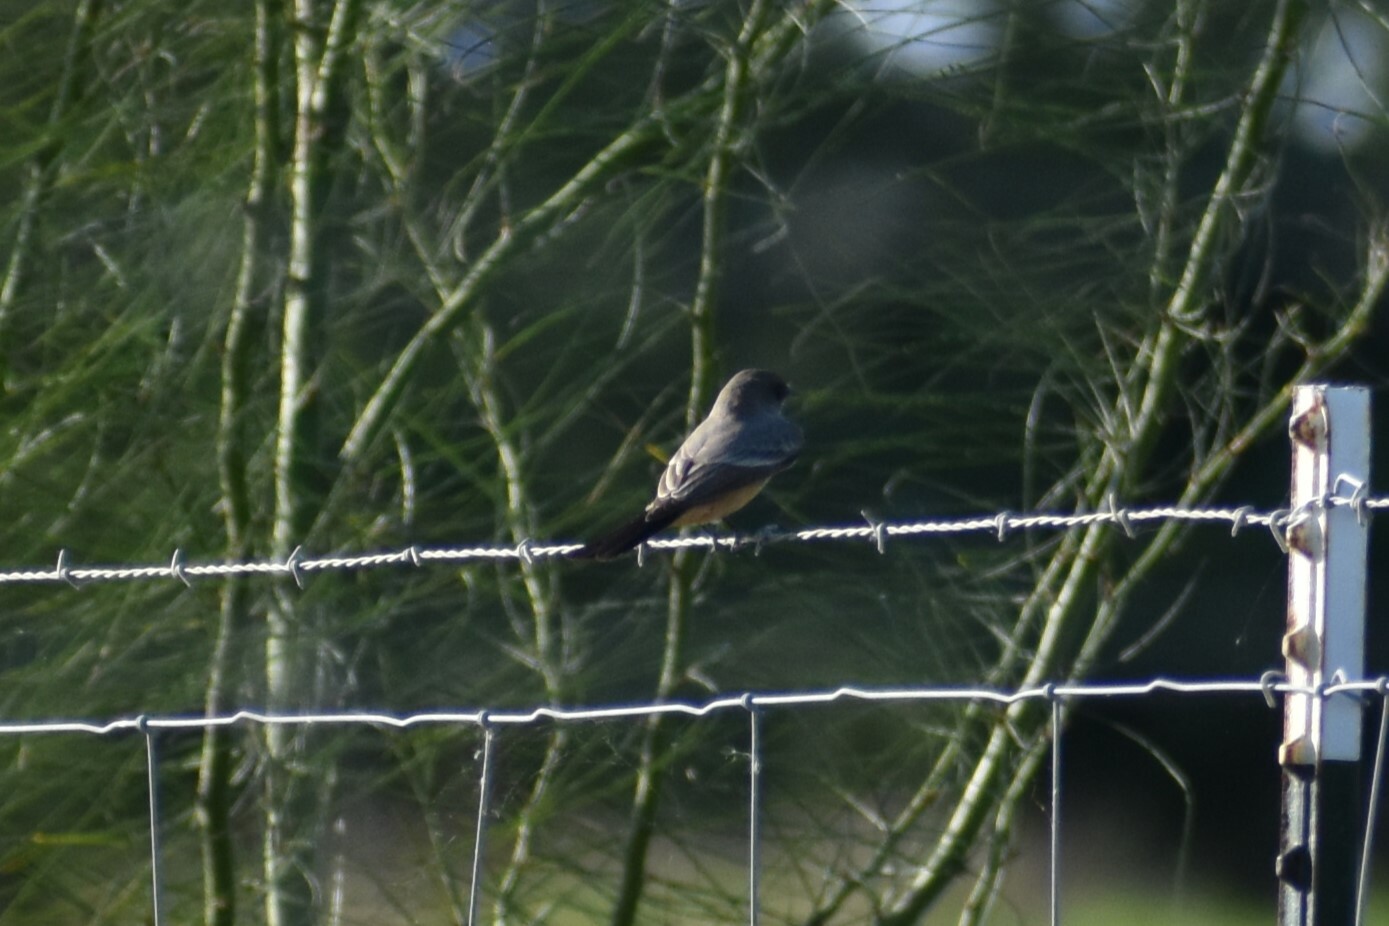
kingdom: Animalia
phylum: Chordata
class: Aves
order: Passeriformes
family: Tyrannidae
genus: Sayornis
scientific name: Sayornis saya
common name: Say's phoebe
